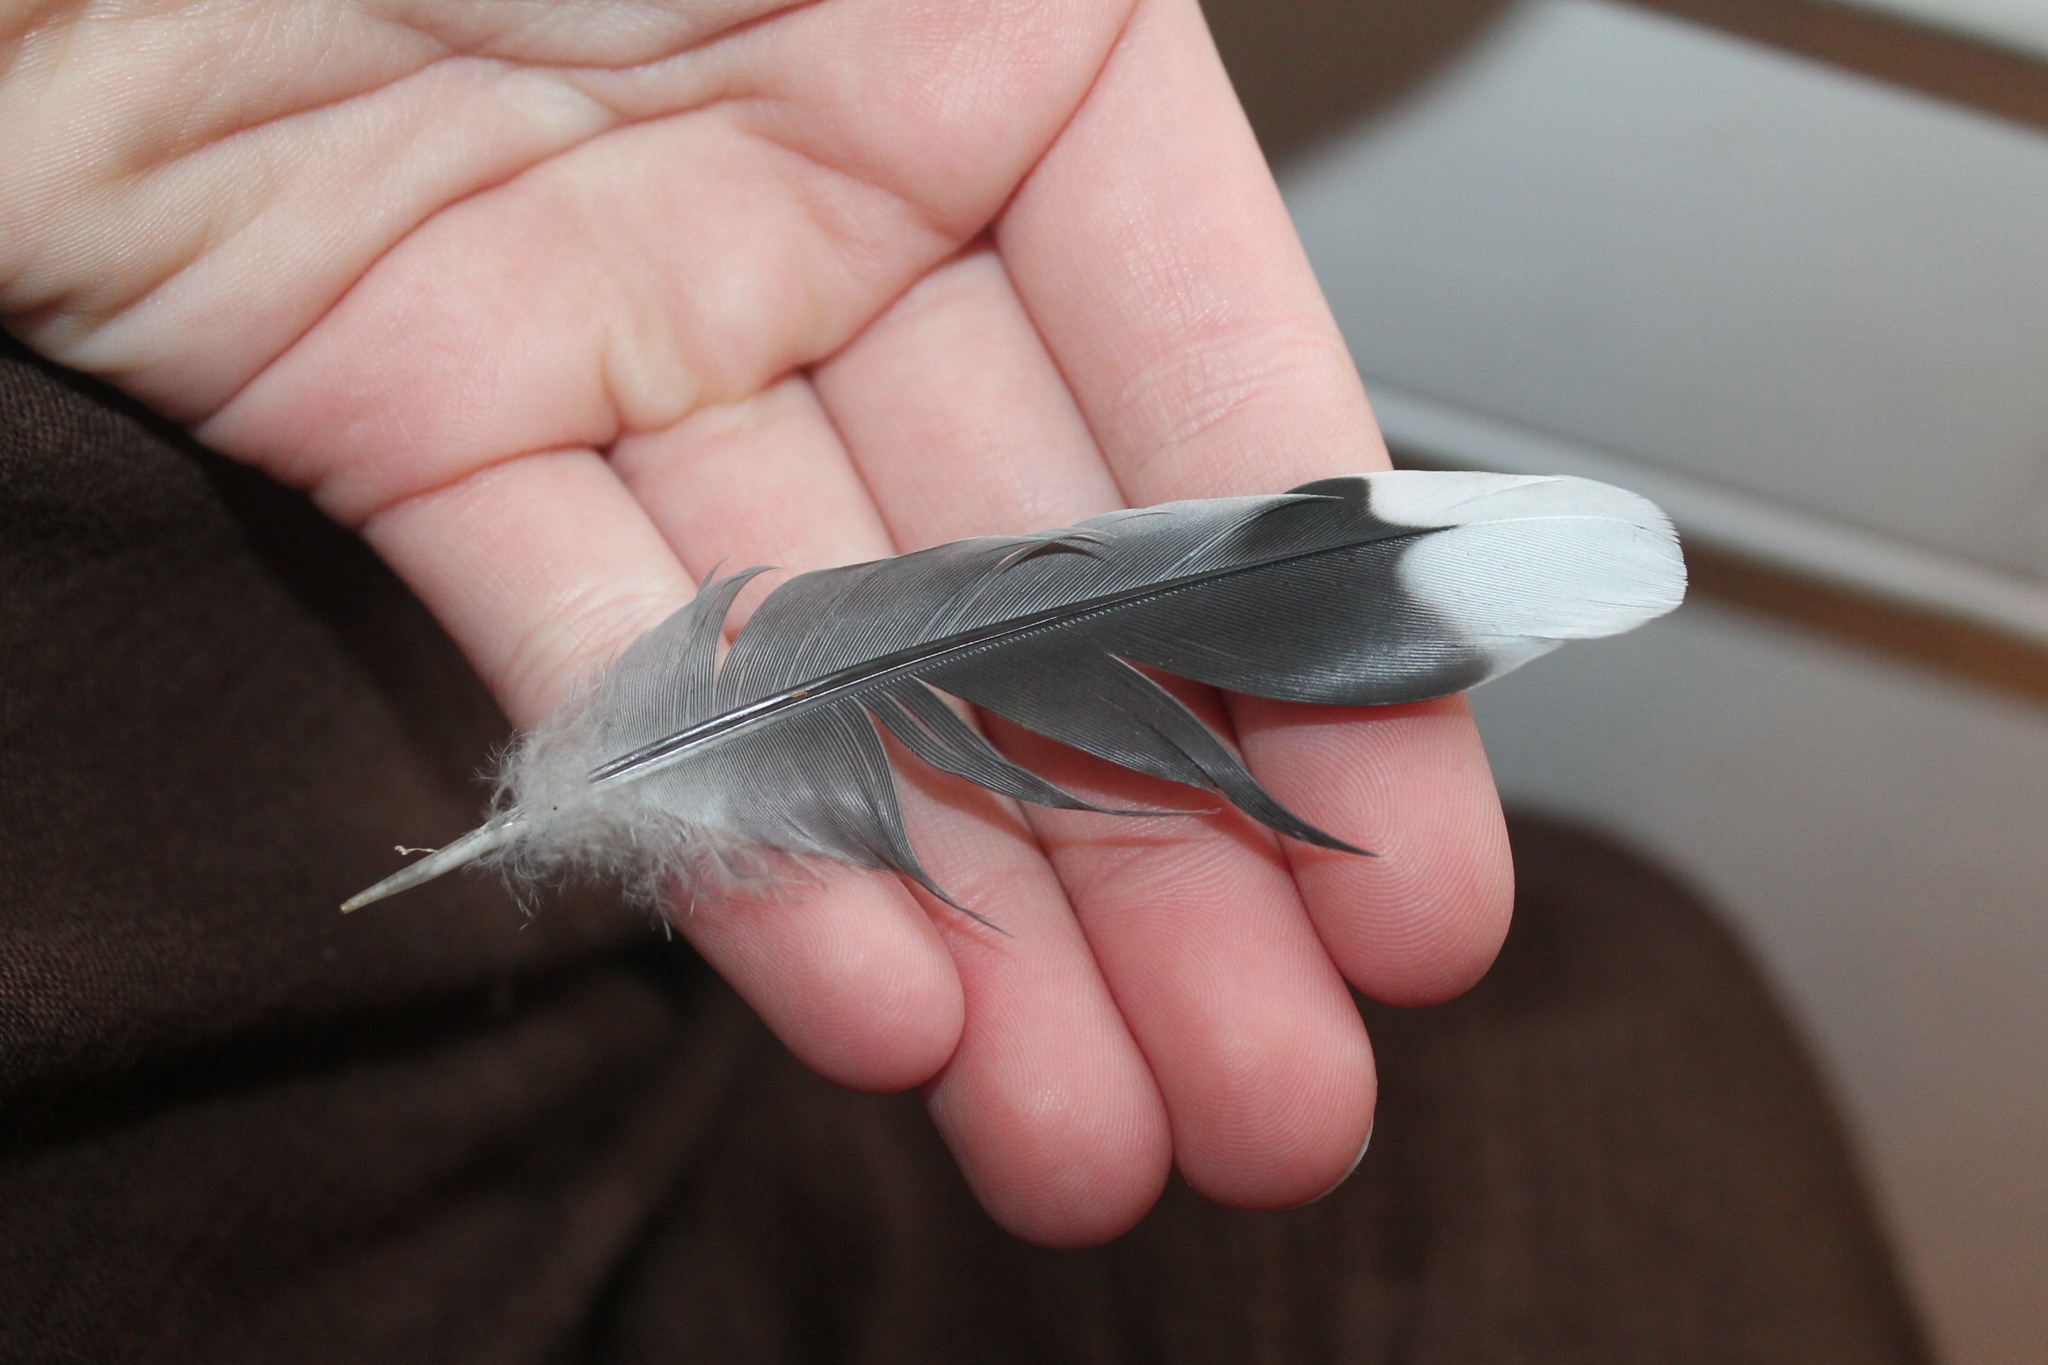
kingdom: Animalia
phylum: Chordata
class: Aves
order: Columbiformes
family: Columbidae
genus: Zenaida
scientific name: Zenaida macroura
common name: Mourning dove
